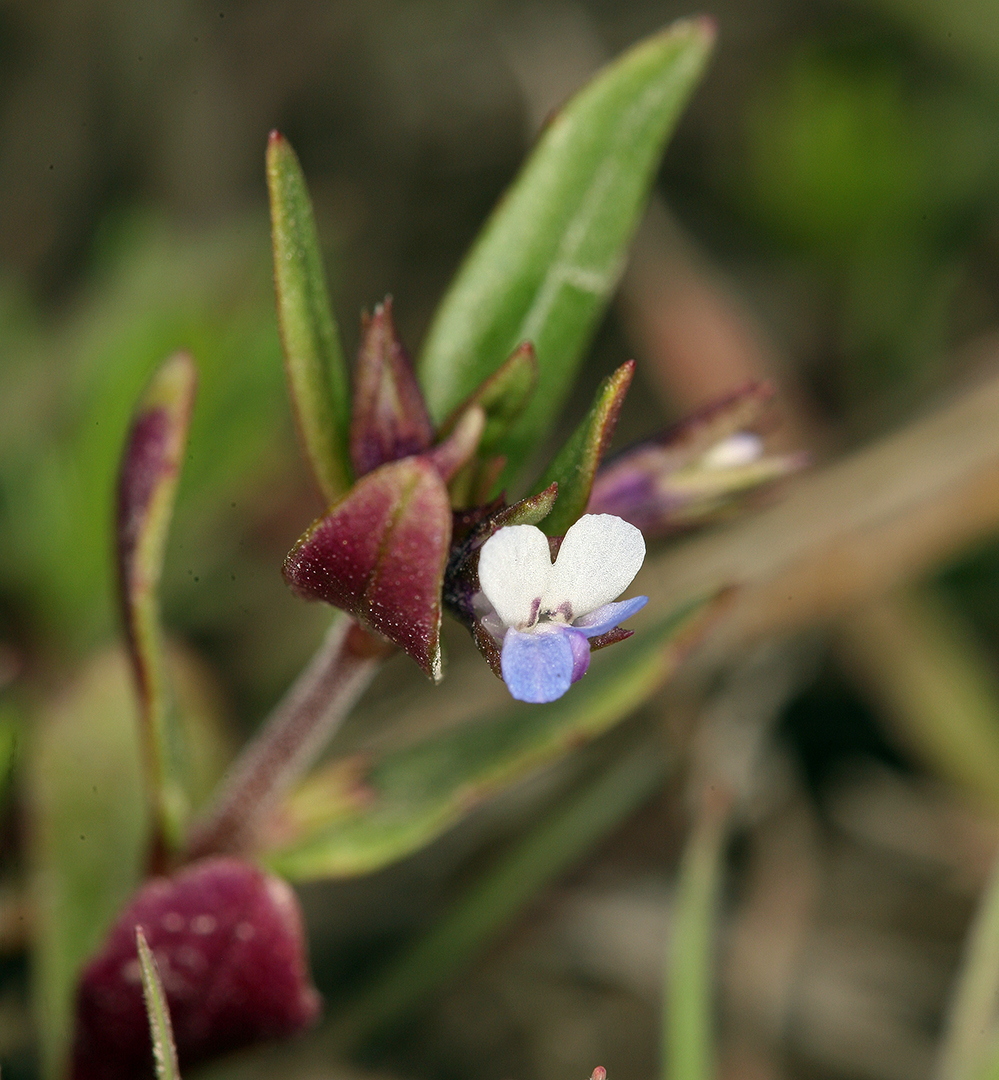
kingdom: Plantae
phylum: Tracheophyta
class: Magnoliopsida
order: Lamiales
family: Plantaginaceae
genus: Collinsia
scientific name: Collinsia parviflora
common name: Blue-lips
